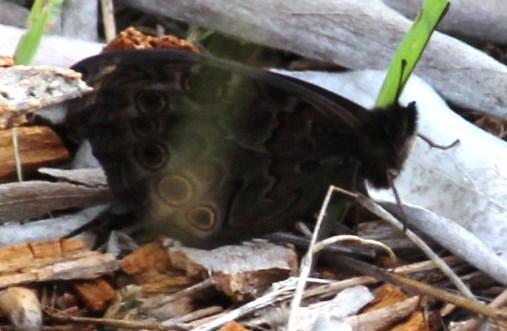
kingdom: Animalia
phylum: Arthropoda
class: Insecta
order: Lepidoptera
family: Nymphalidae
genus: Dira
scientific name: Dira clytus
